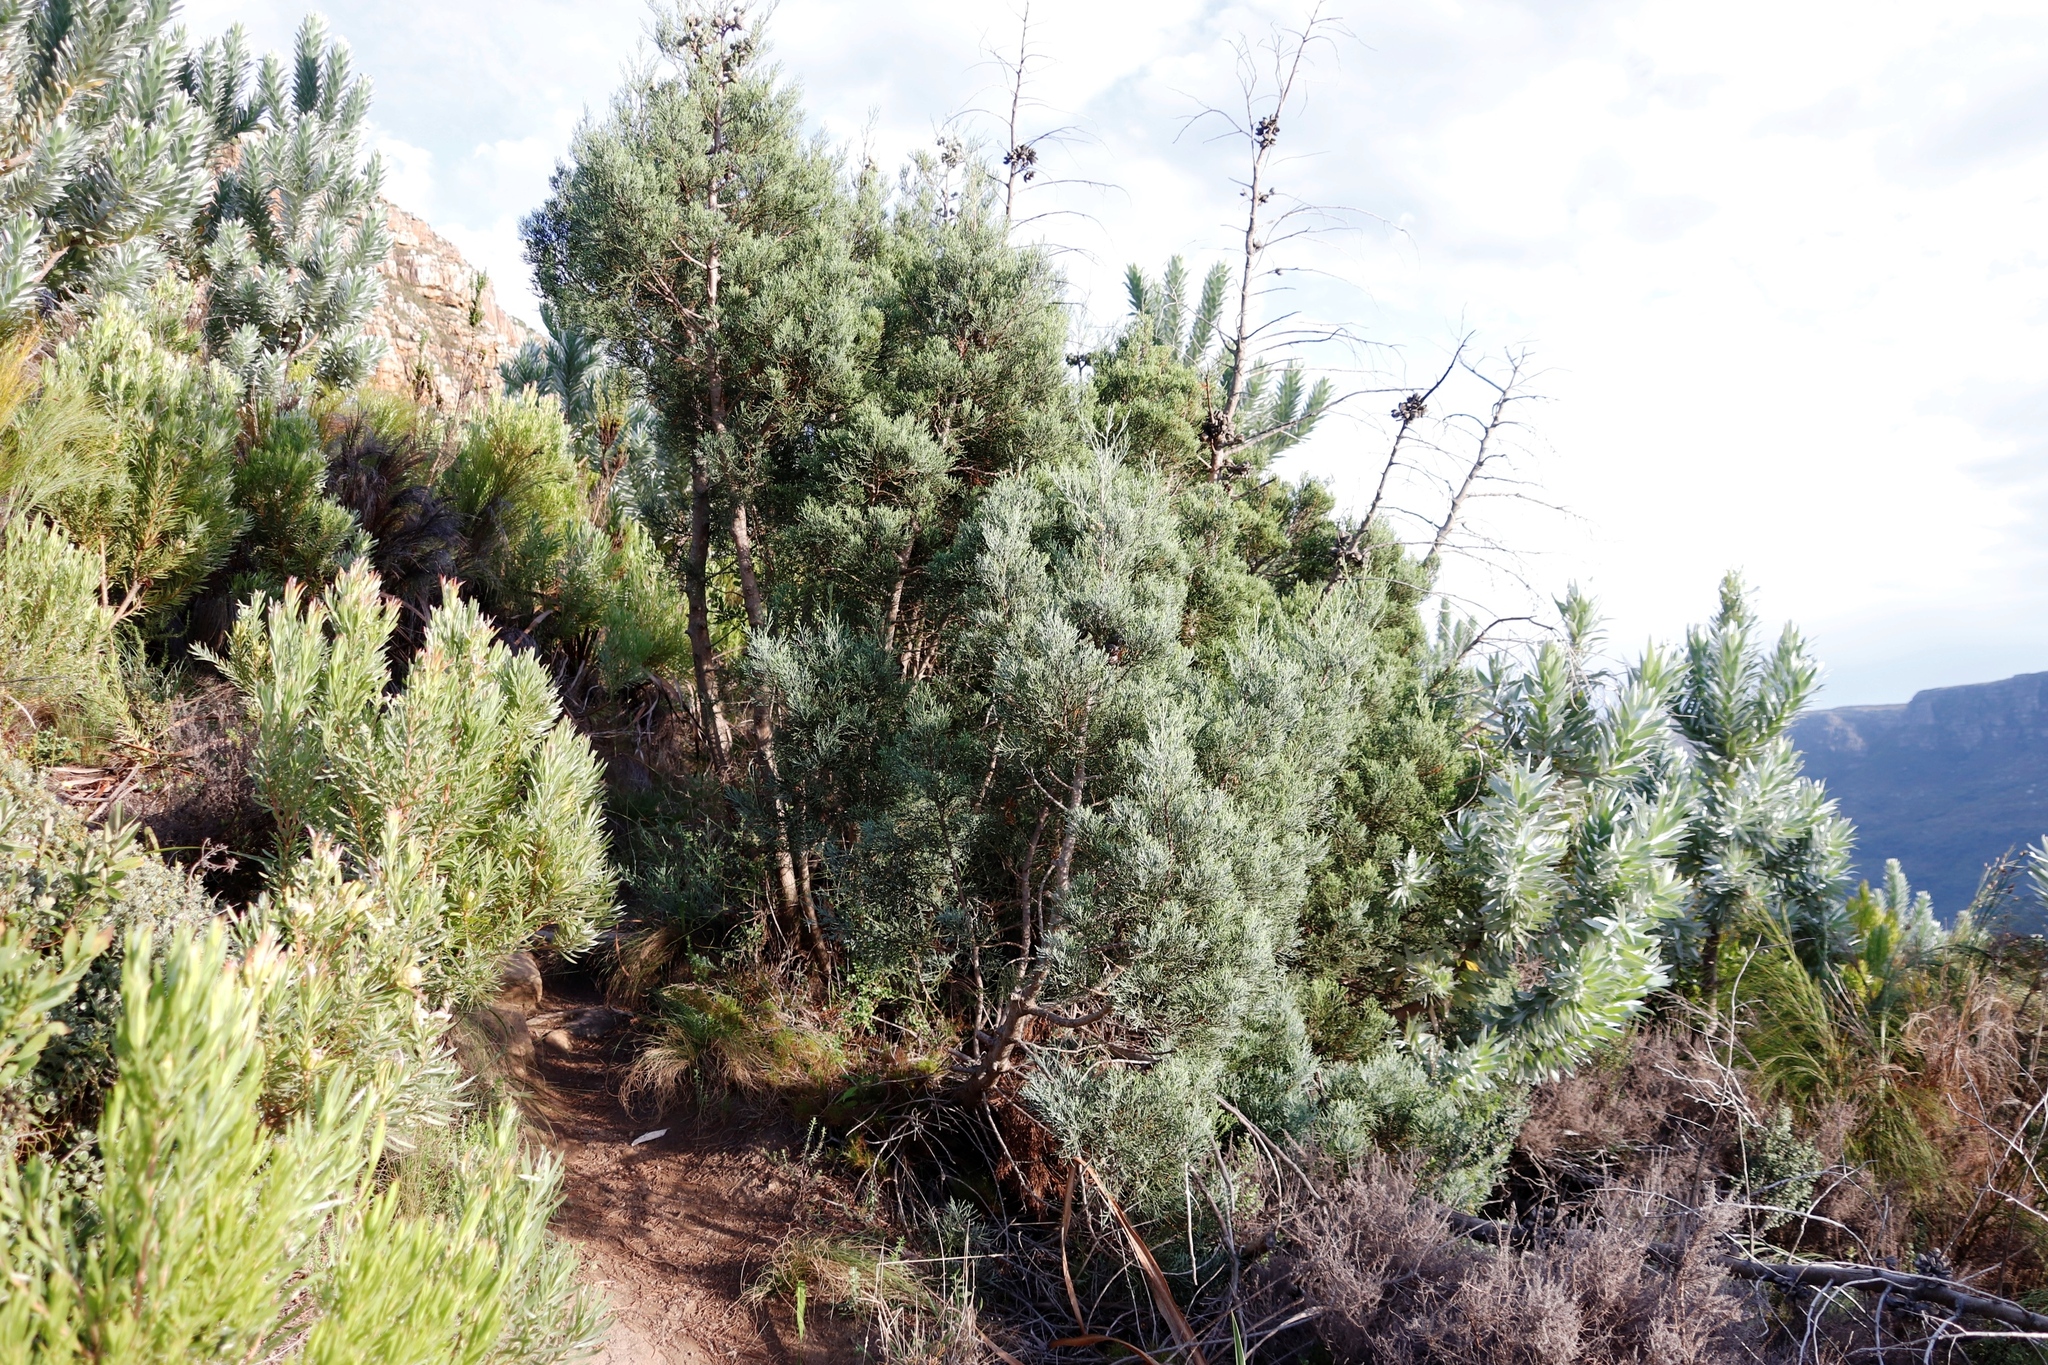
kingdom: Plantae
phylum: Tracheophyta
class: Pinopsida
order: Pinales
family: Cupressaceae
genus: Widdringtonia
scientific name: Widdringtonia nodiflora
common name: Cape cypress
